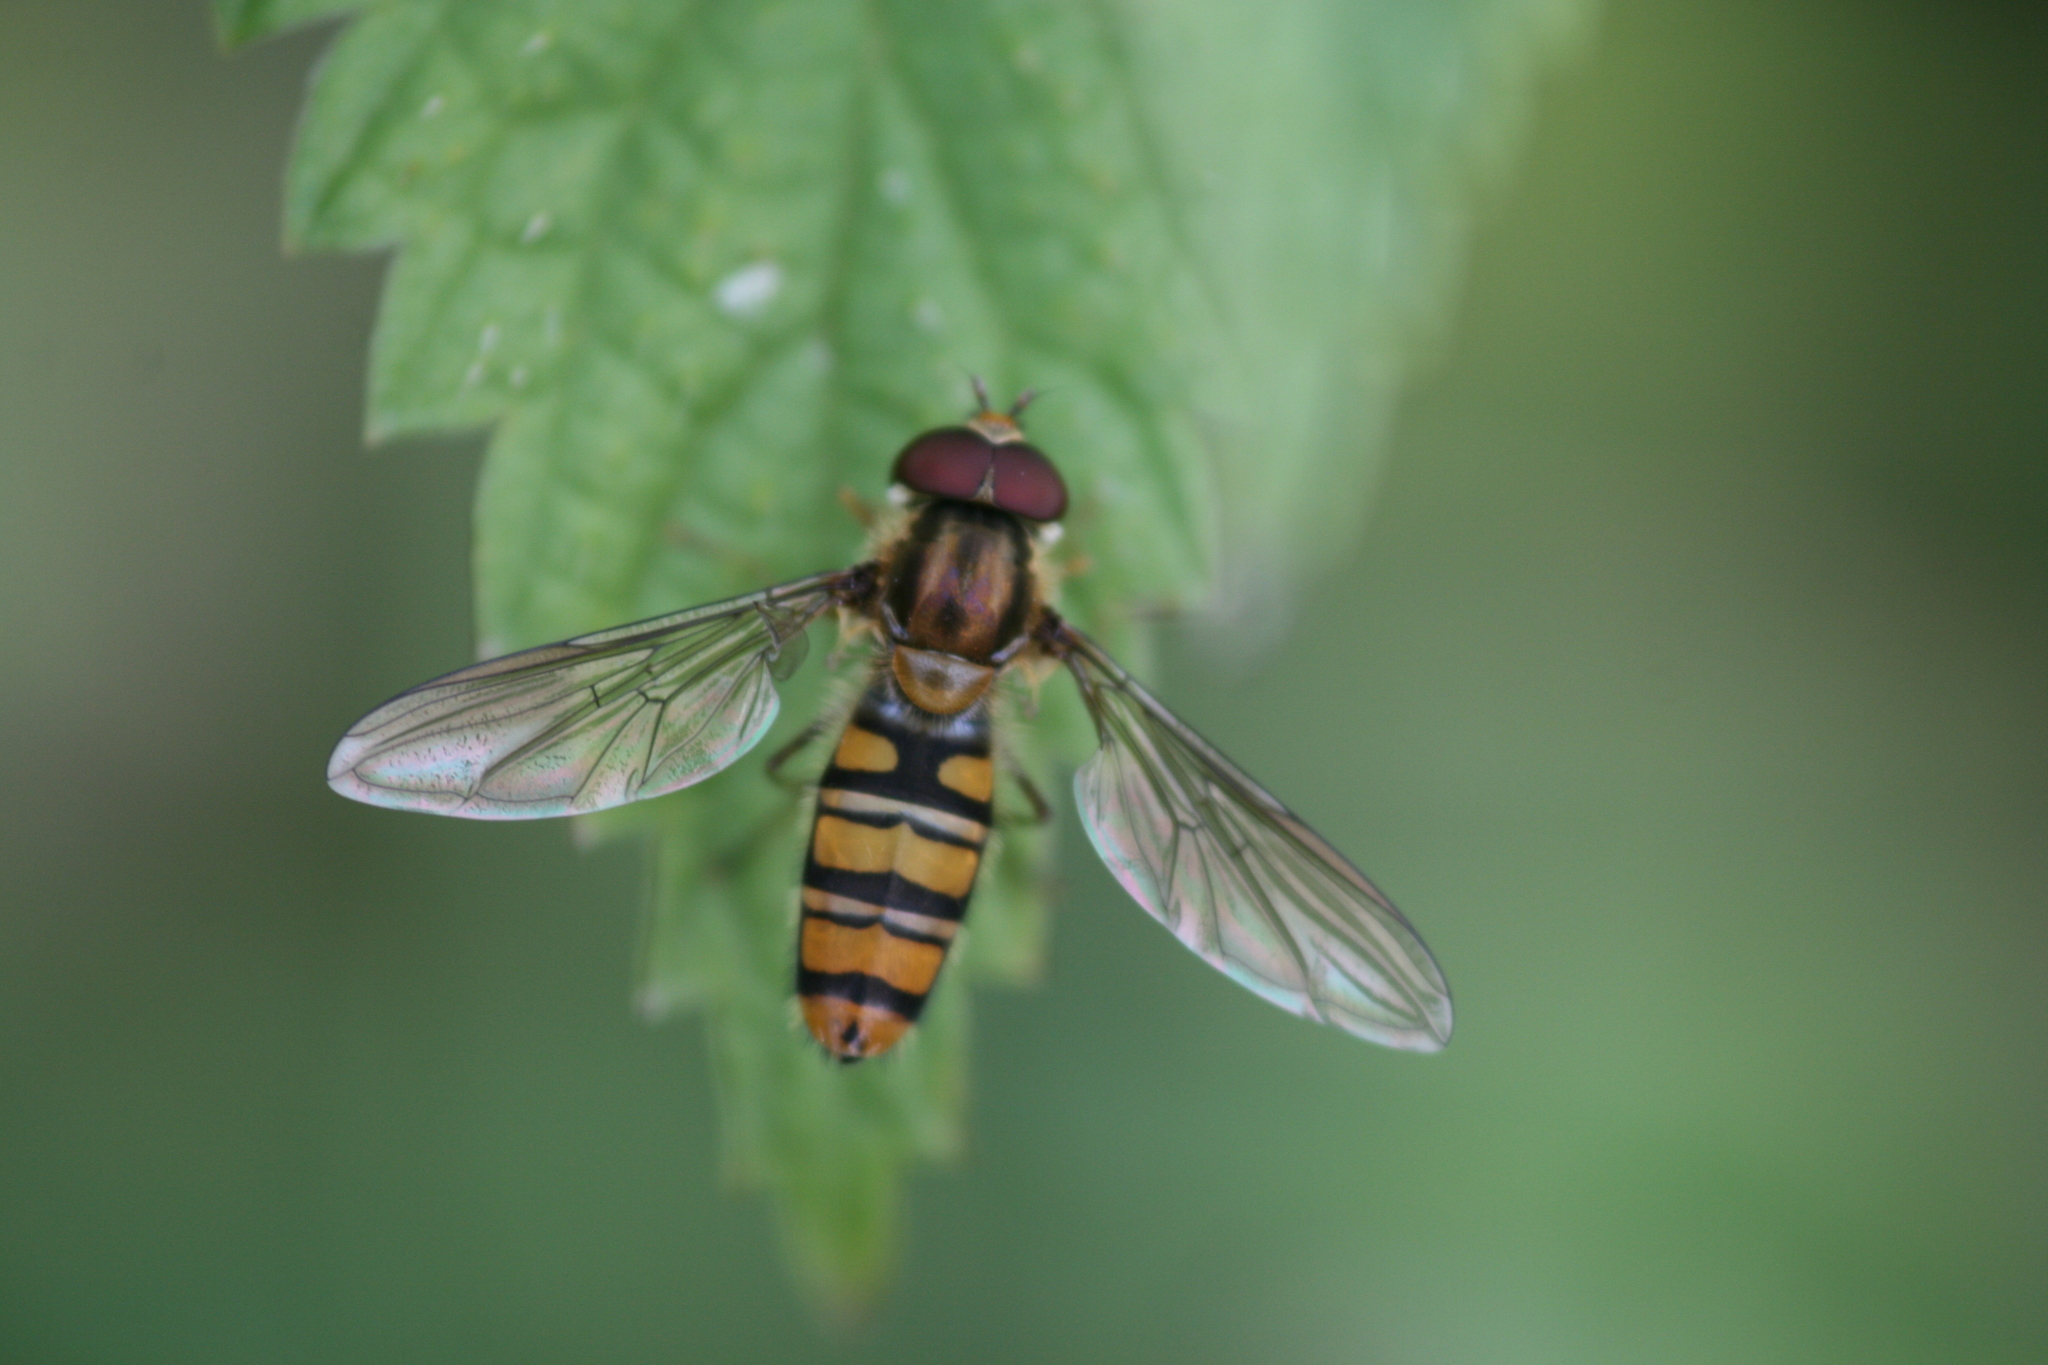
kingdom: Animalia
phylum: Arthropoda
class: Insecta
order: Diptera
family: Syrphidae
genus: Episyrphus
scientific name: Episyrphus balteatus
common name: Marmalade hoverfly
